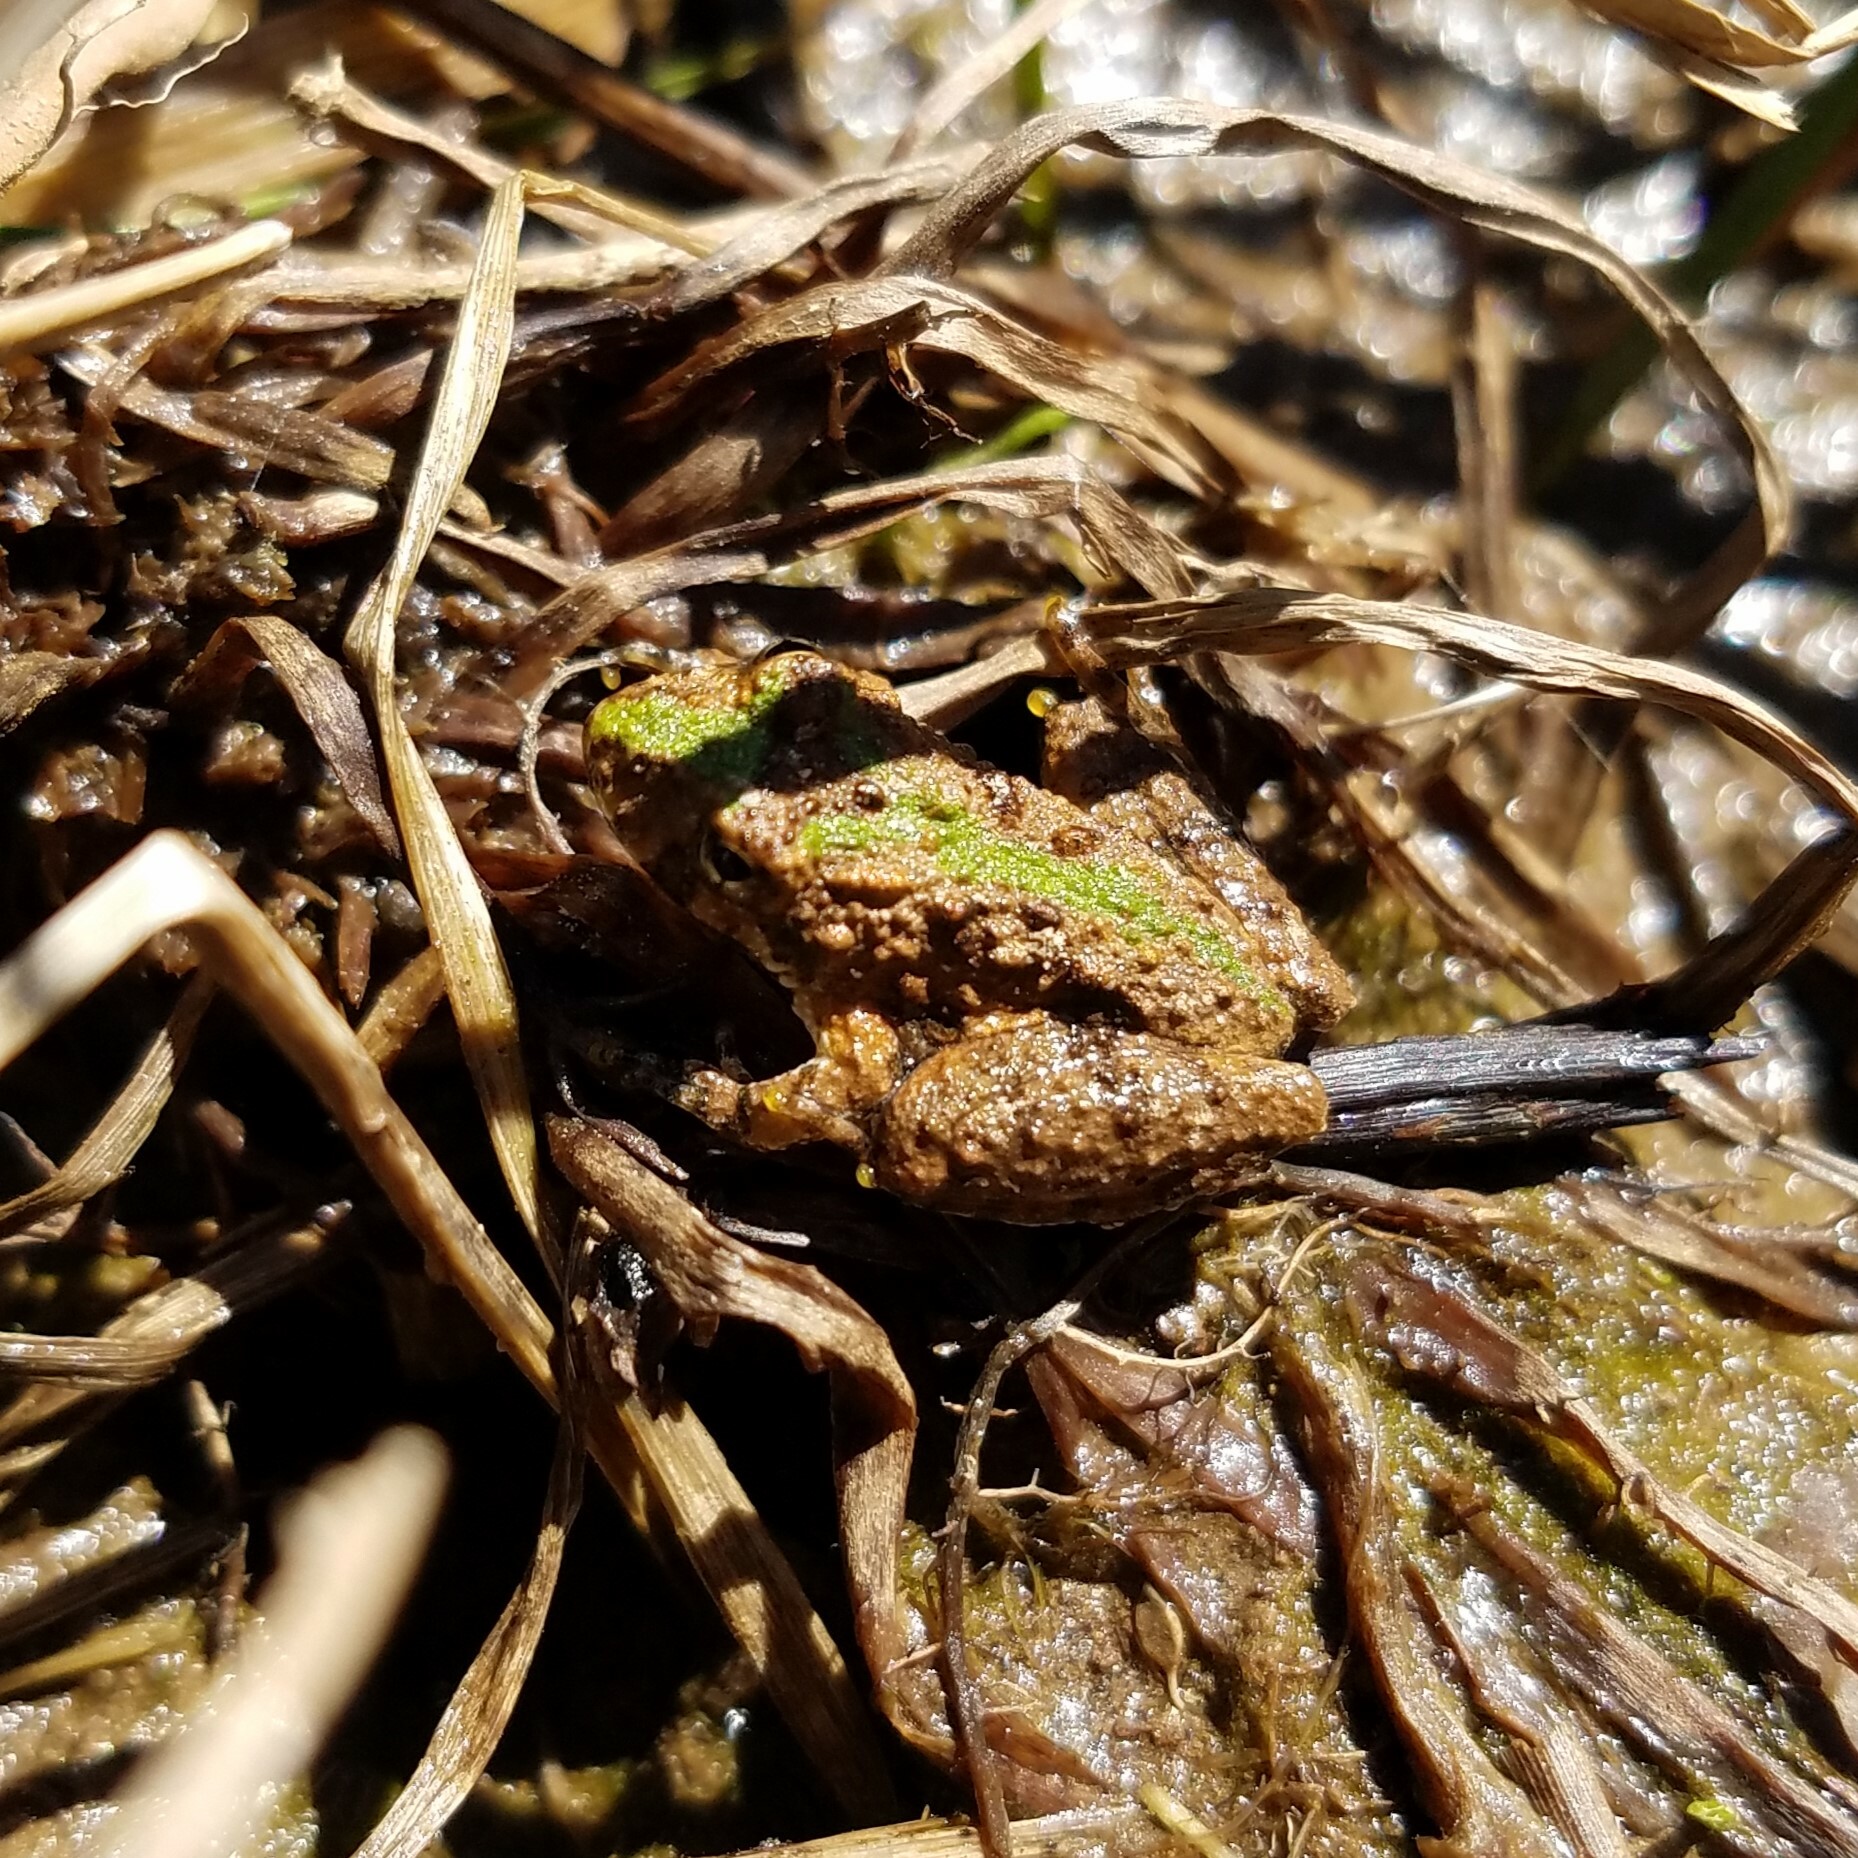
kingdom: Animalia
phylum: Chordata
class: Amphibia
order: Anura
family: Hylidae
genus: Acris
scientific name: Acris crepitans
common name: Northern cricket frog
